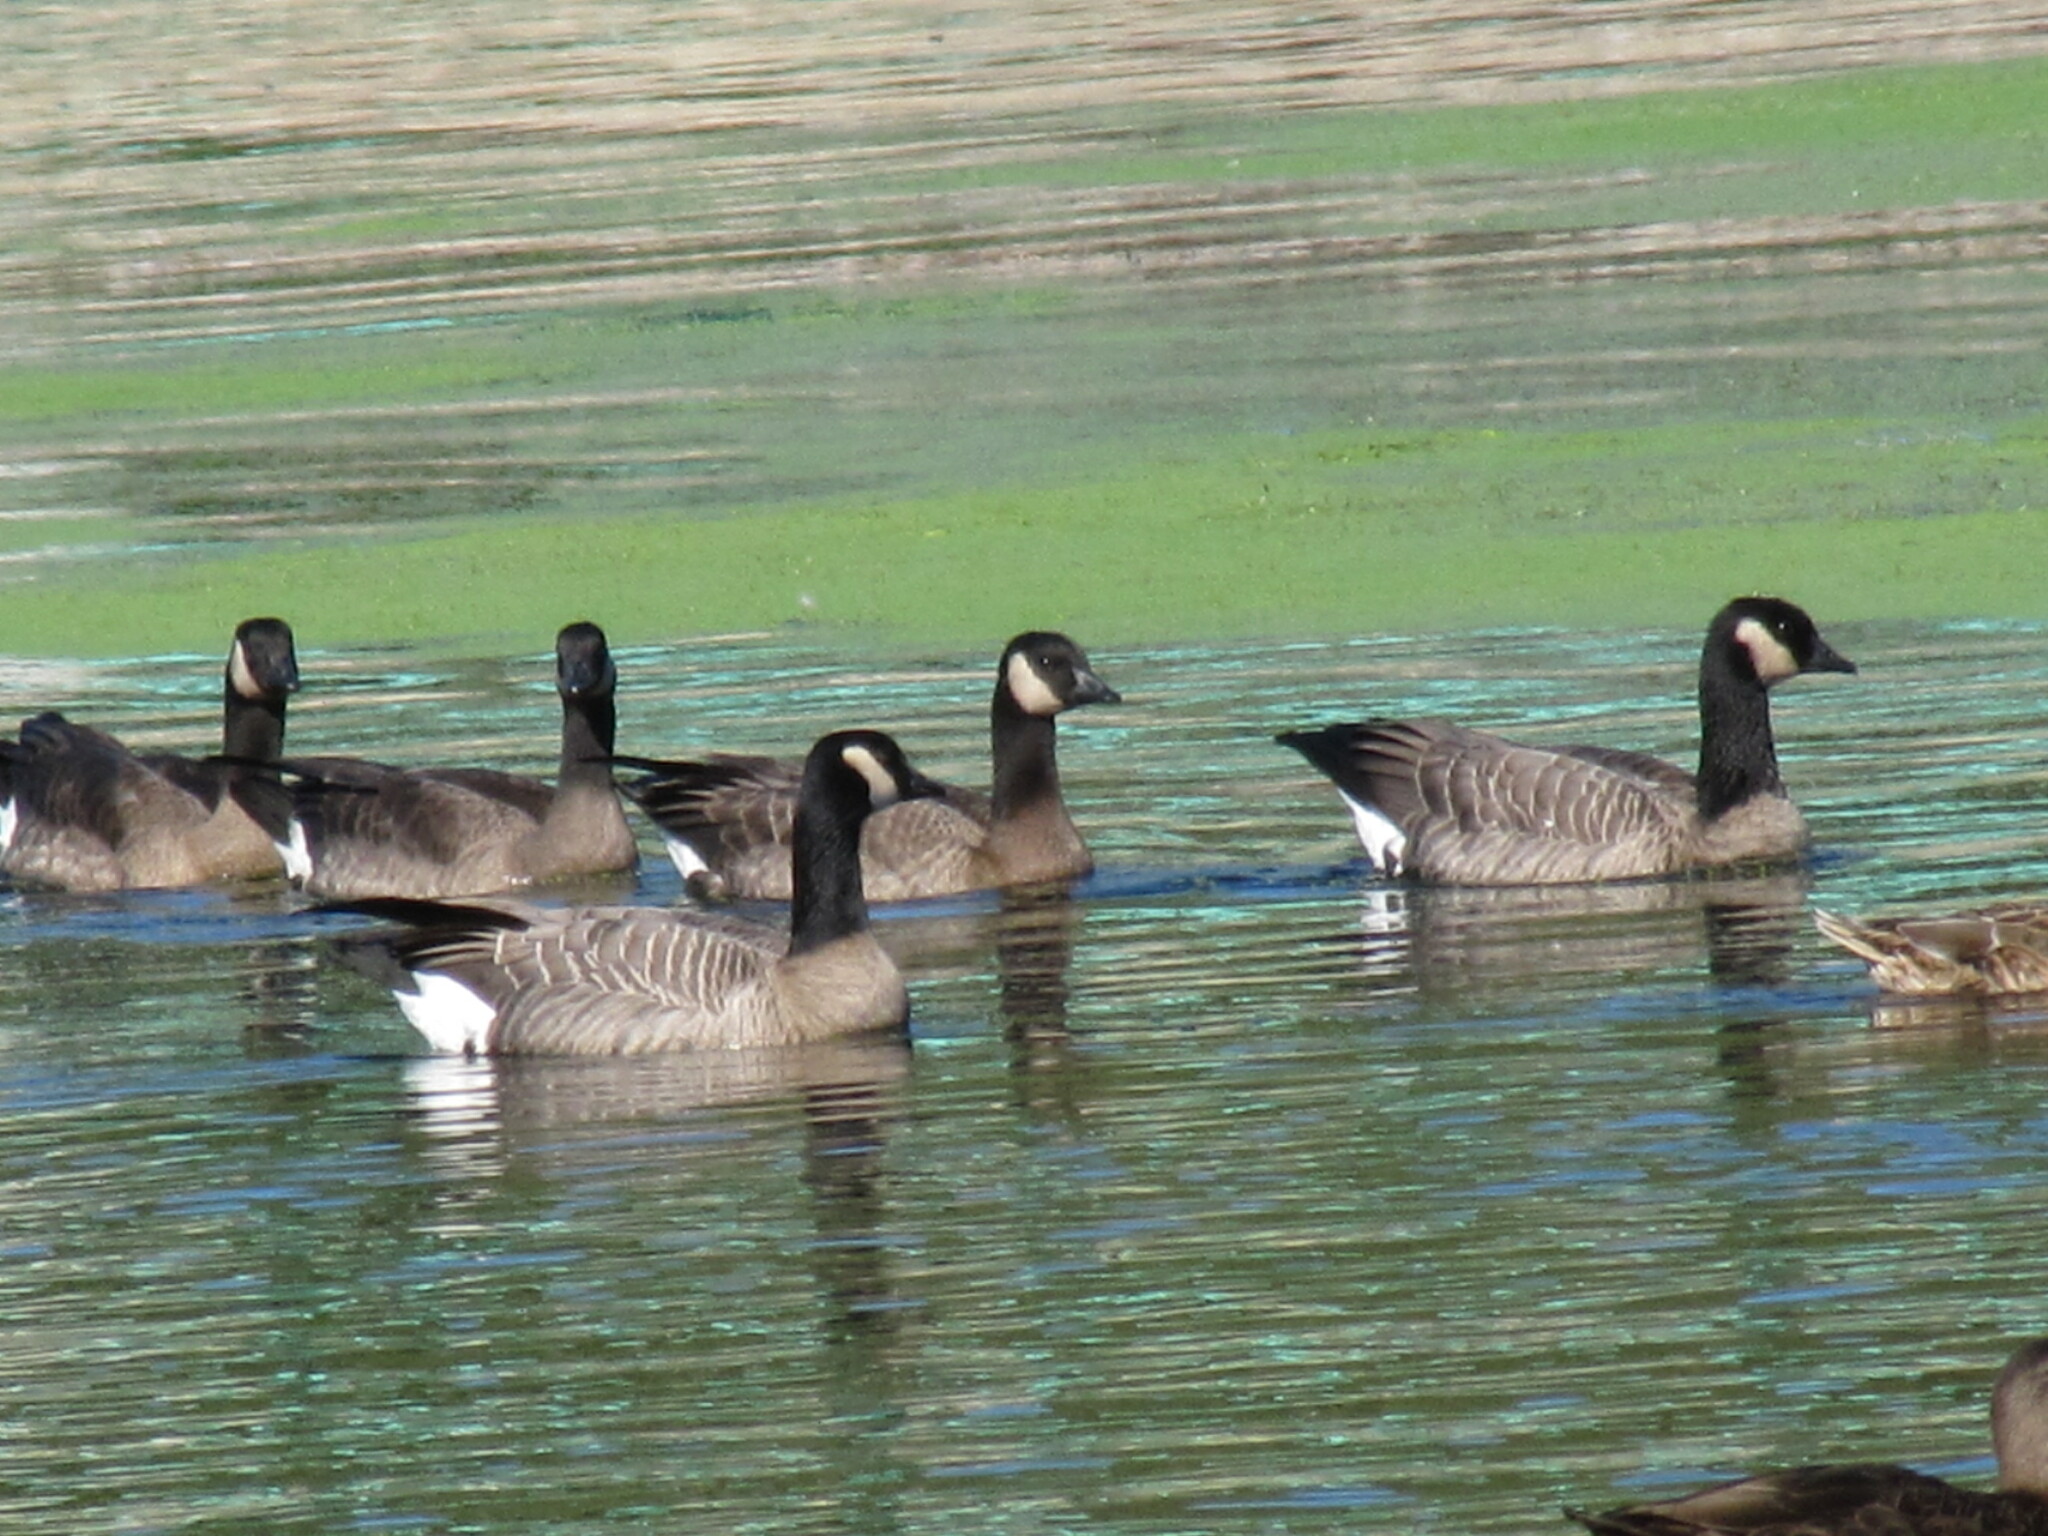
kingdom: Animalia
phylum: Chordata
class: Aves
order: Anseriformes
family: Anatidae
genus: Branta
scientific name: Branta hutchinsii
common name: Cackling goose
